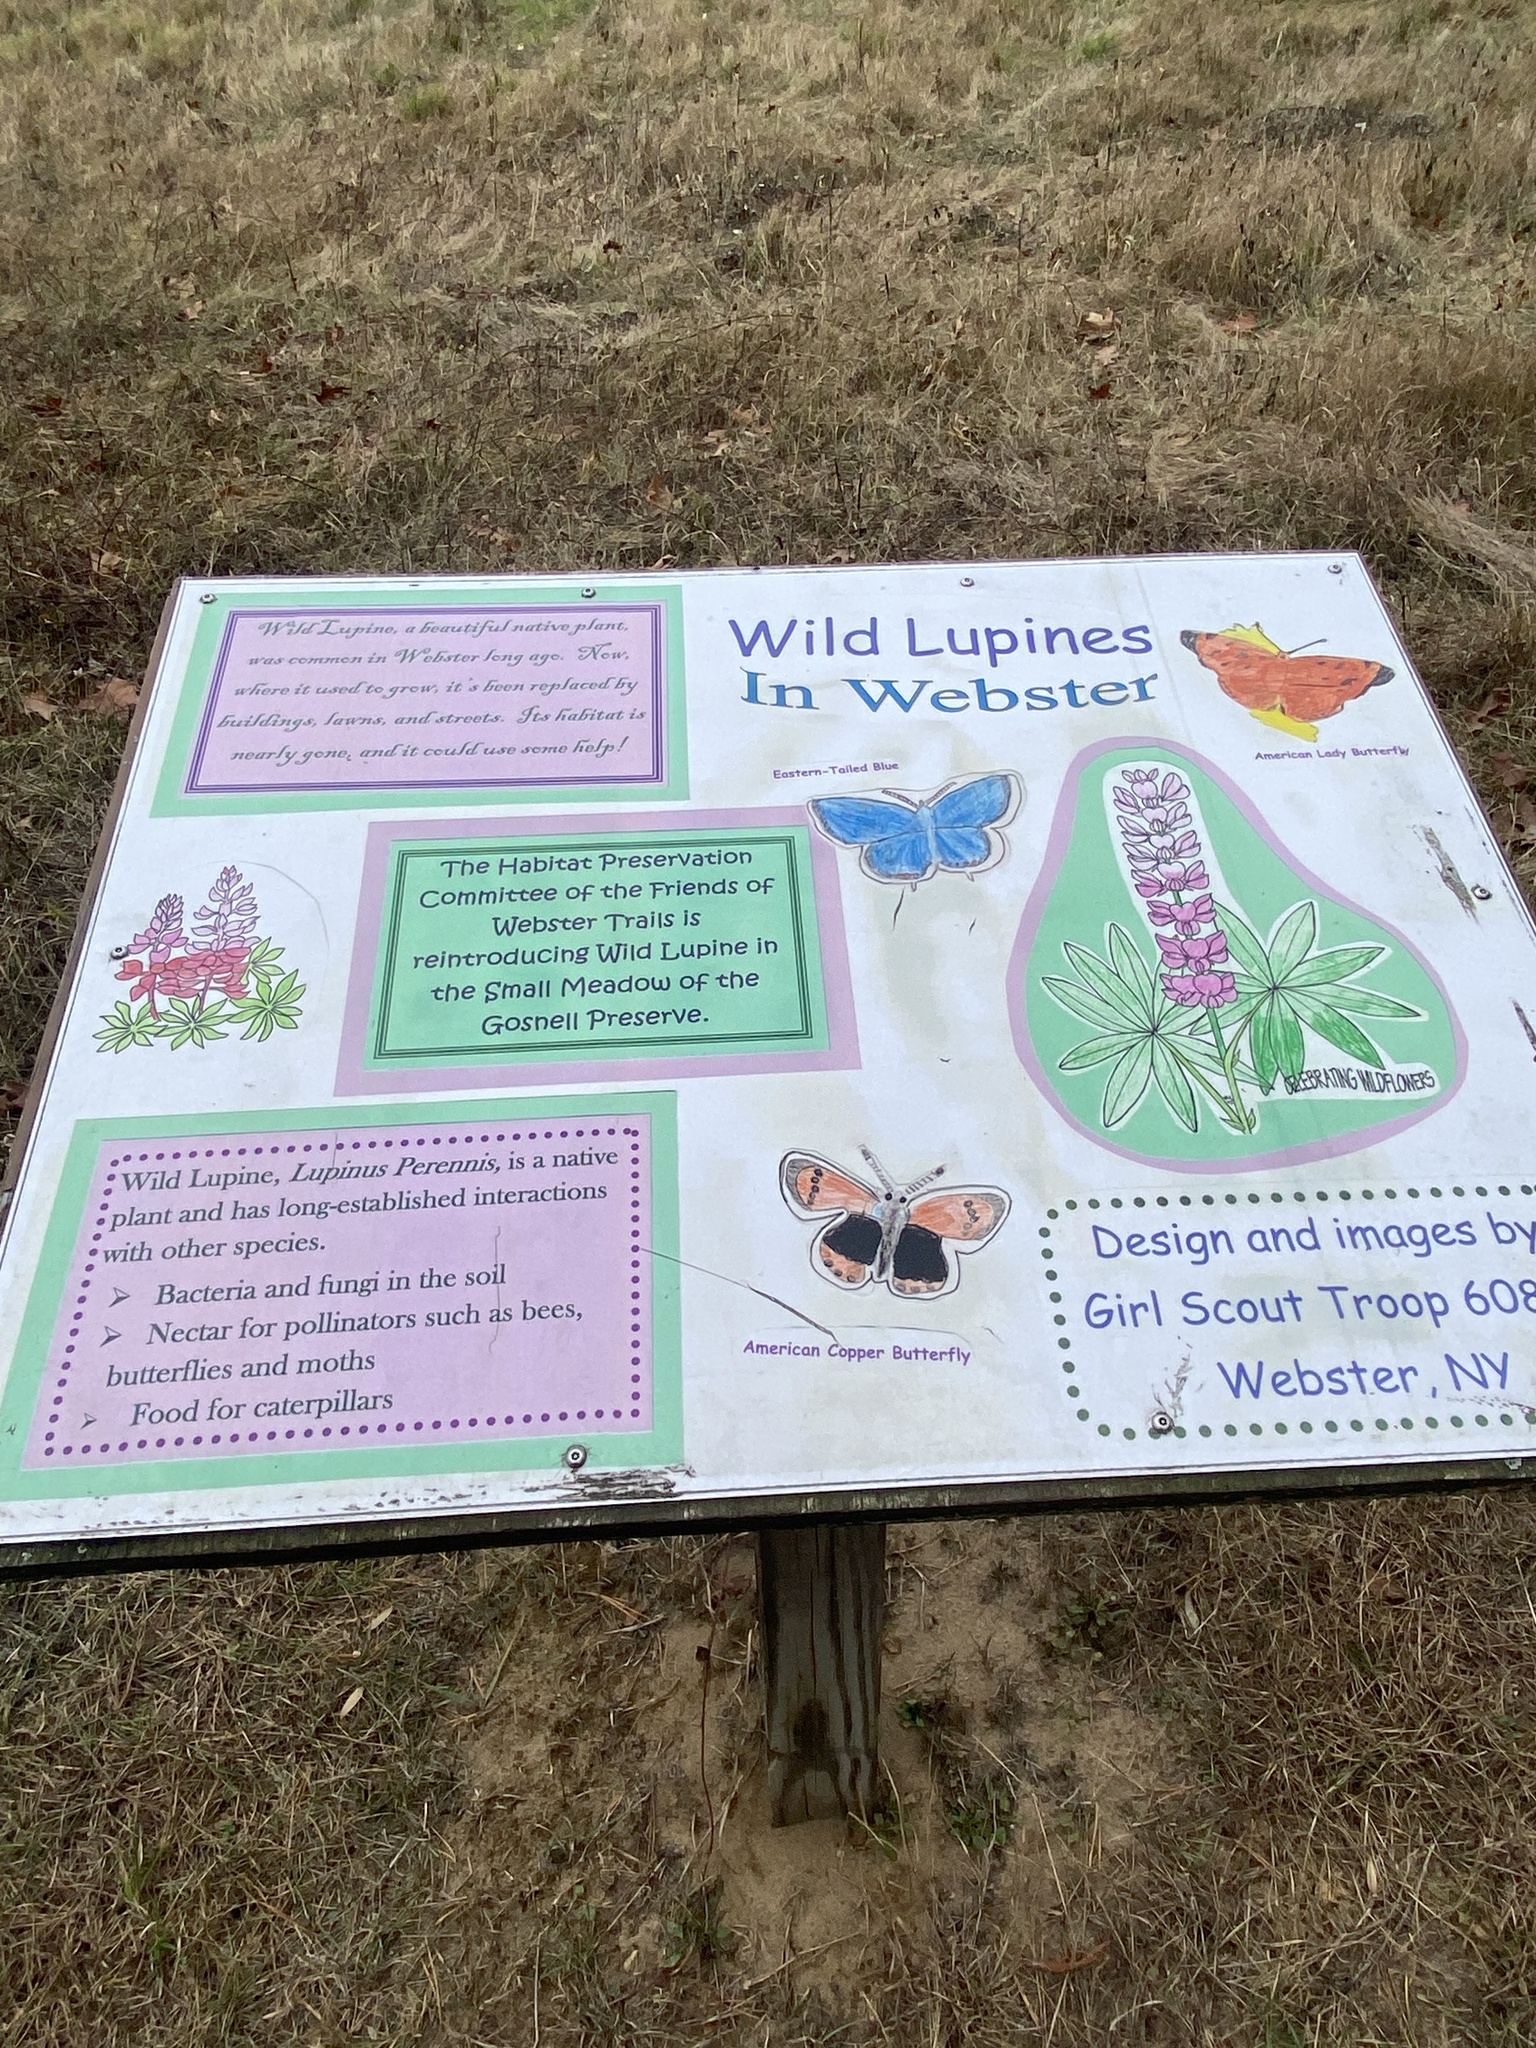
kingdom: Plantae
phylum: Tracheophyta
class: Magnoliopsida
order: Asterales
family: Asteraceae
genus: Achillea
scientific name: Achillea millefolium
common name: Yarrow
